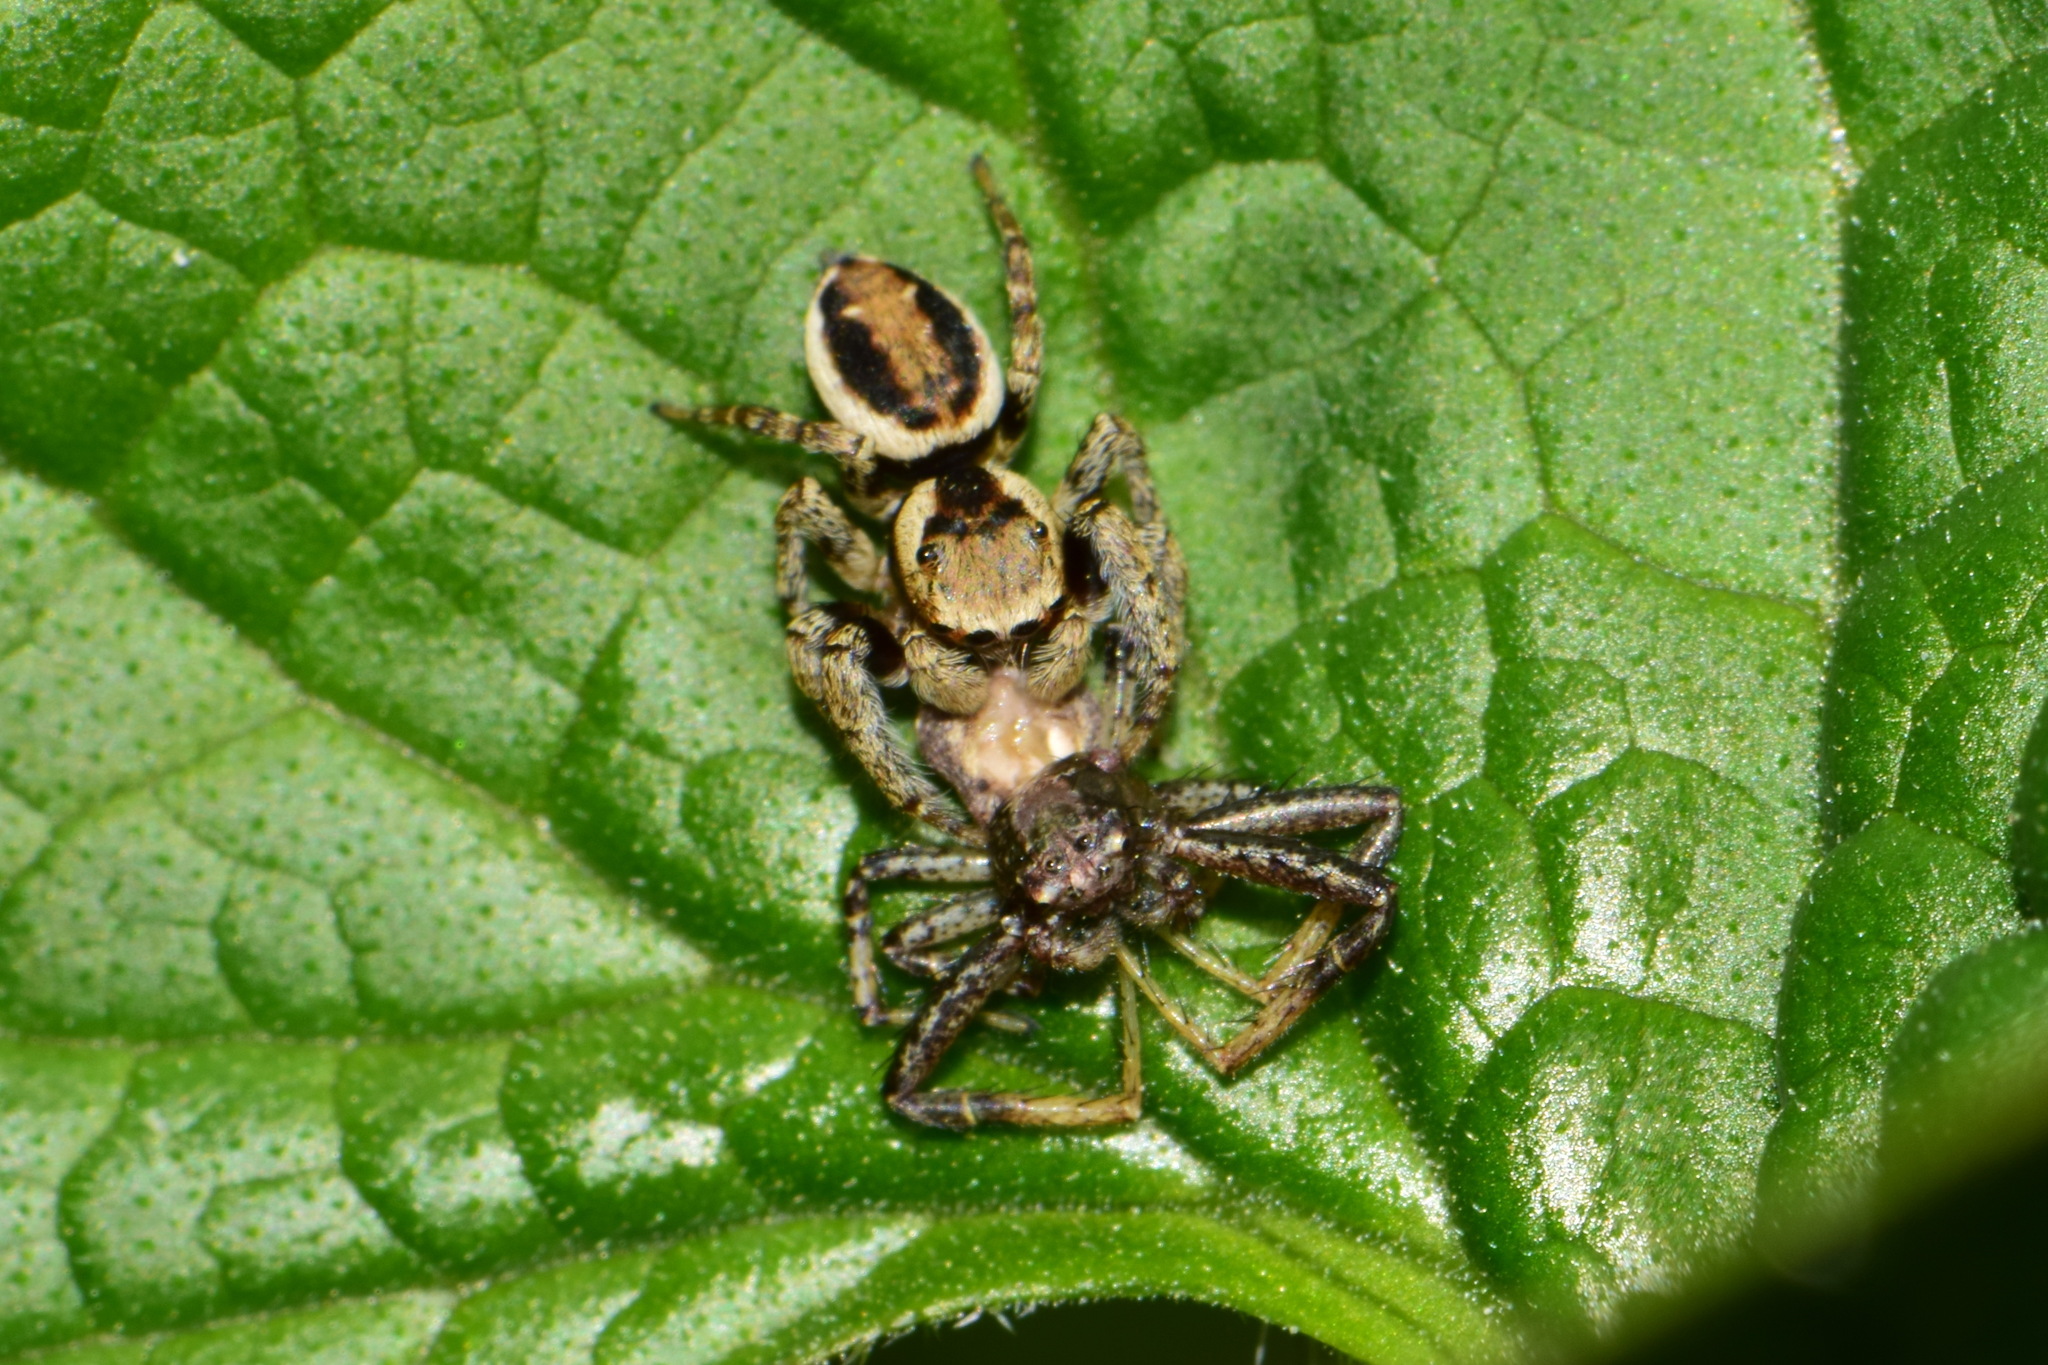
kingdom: Animalia
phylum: Arthropoda
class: Arachnida
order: Araneae
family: Salticidae
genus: Evarcha
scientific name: Evarcha falcata
